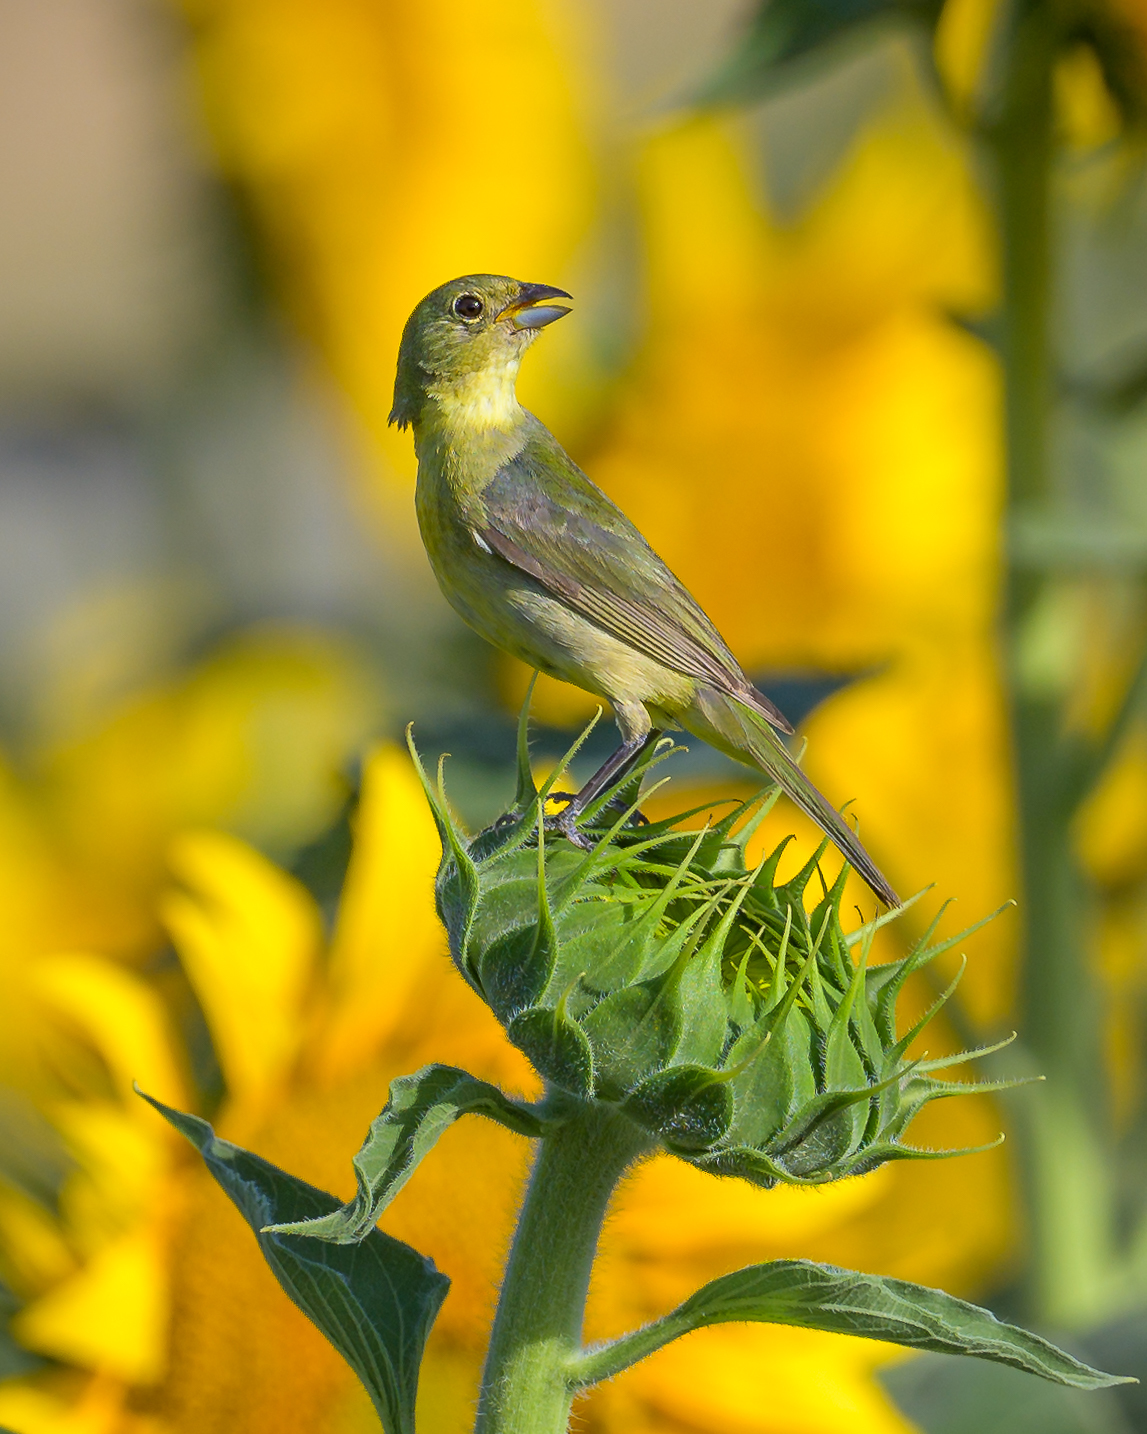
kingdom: Animalia
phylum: Chordata
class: Aves
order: Passeriformes
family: Cardinalidae
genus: Passerina
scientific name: Passerina ciris
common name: Painted bunting
